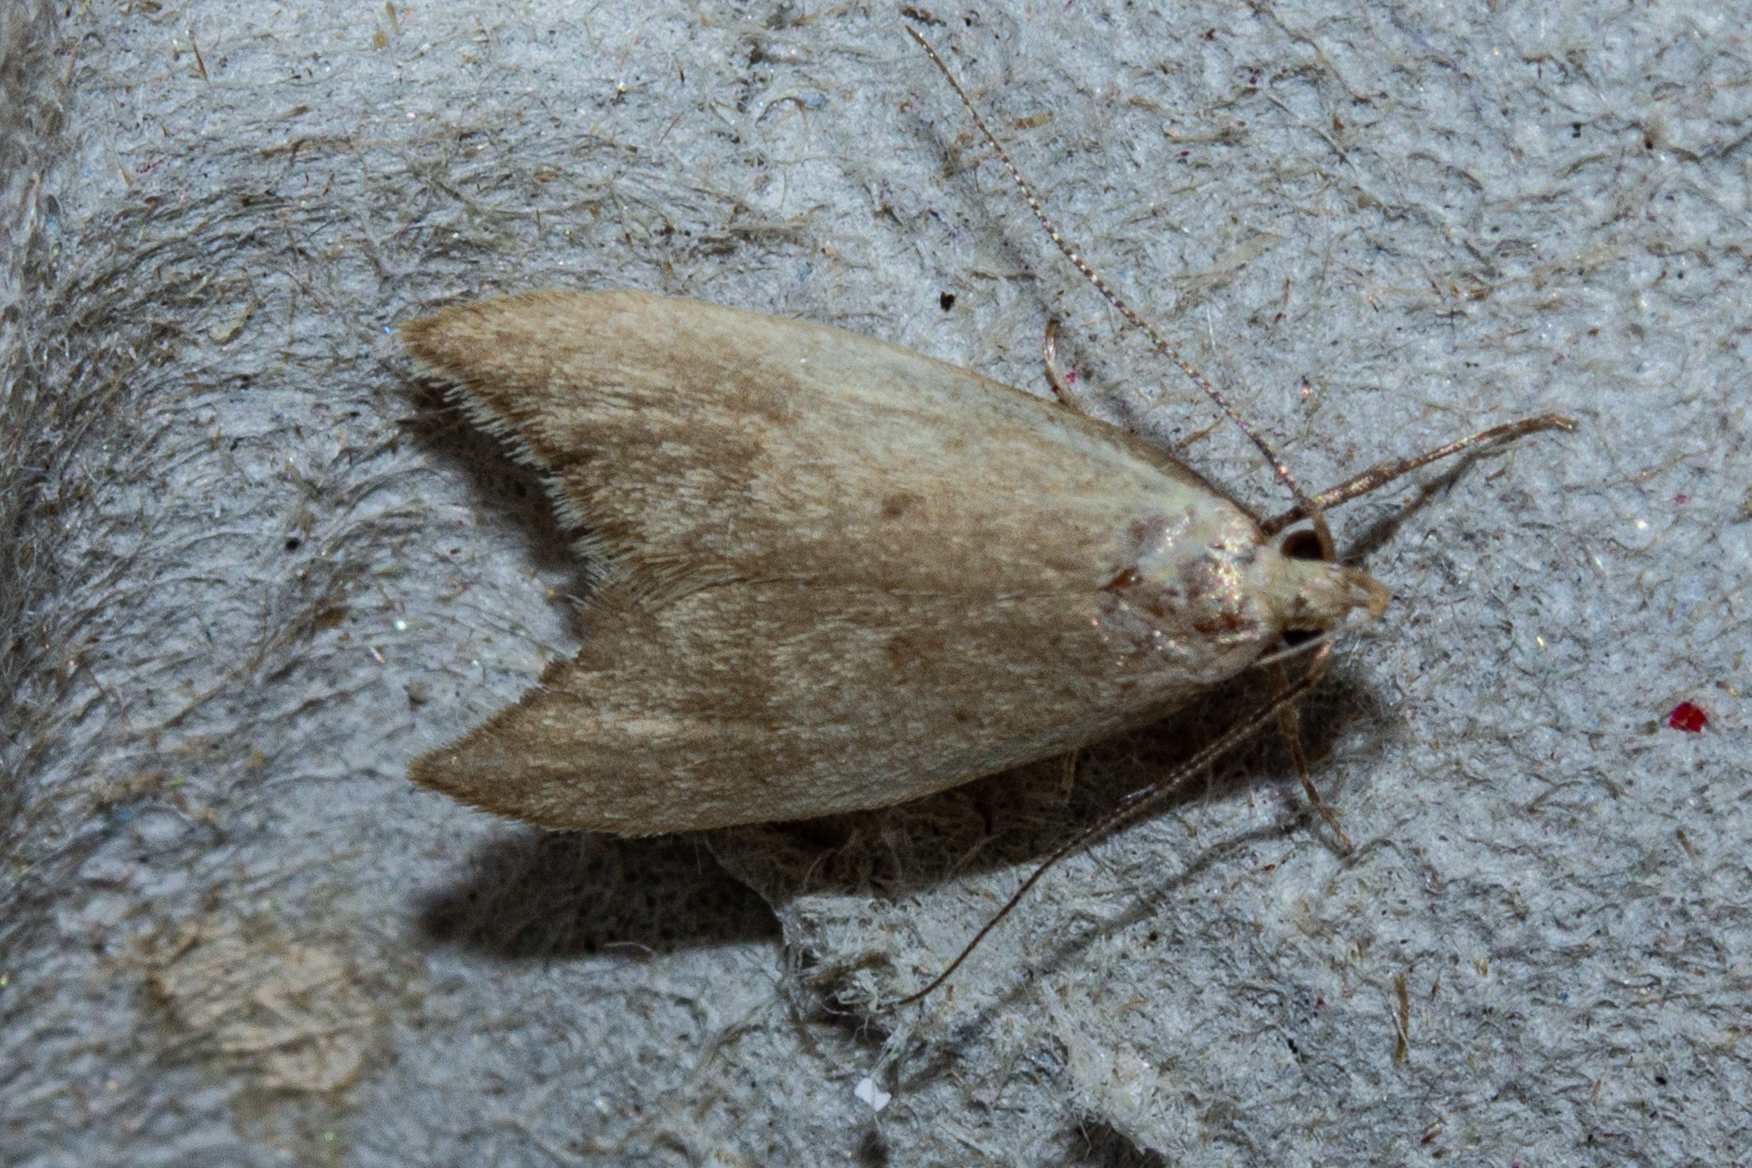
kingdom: Animalia
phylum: Arthropoda
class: Insecta
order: Lepidoptera
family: Oecophoridae
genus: Gymnobathra
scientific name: Gymnobathra philadelpha
